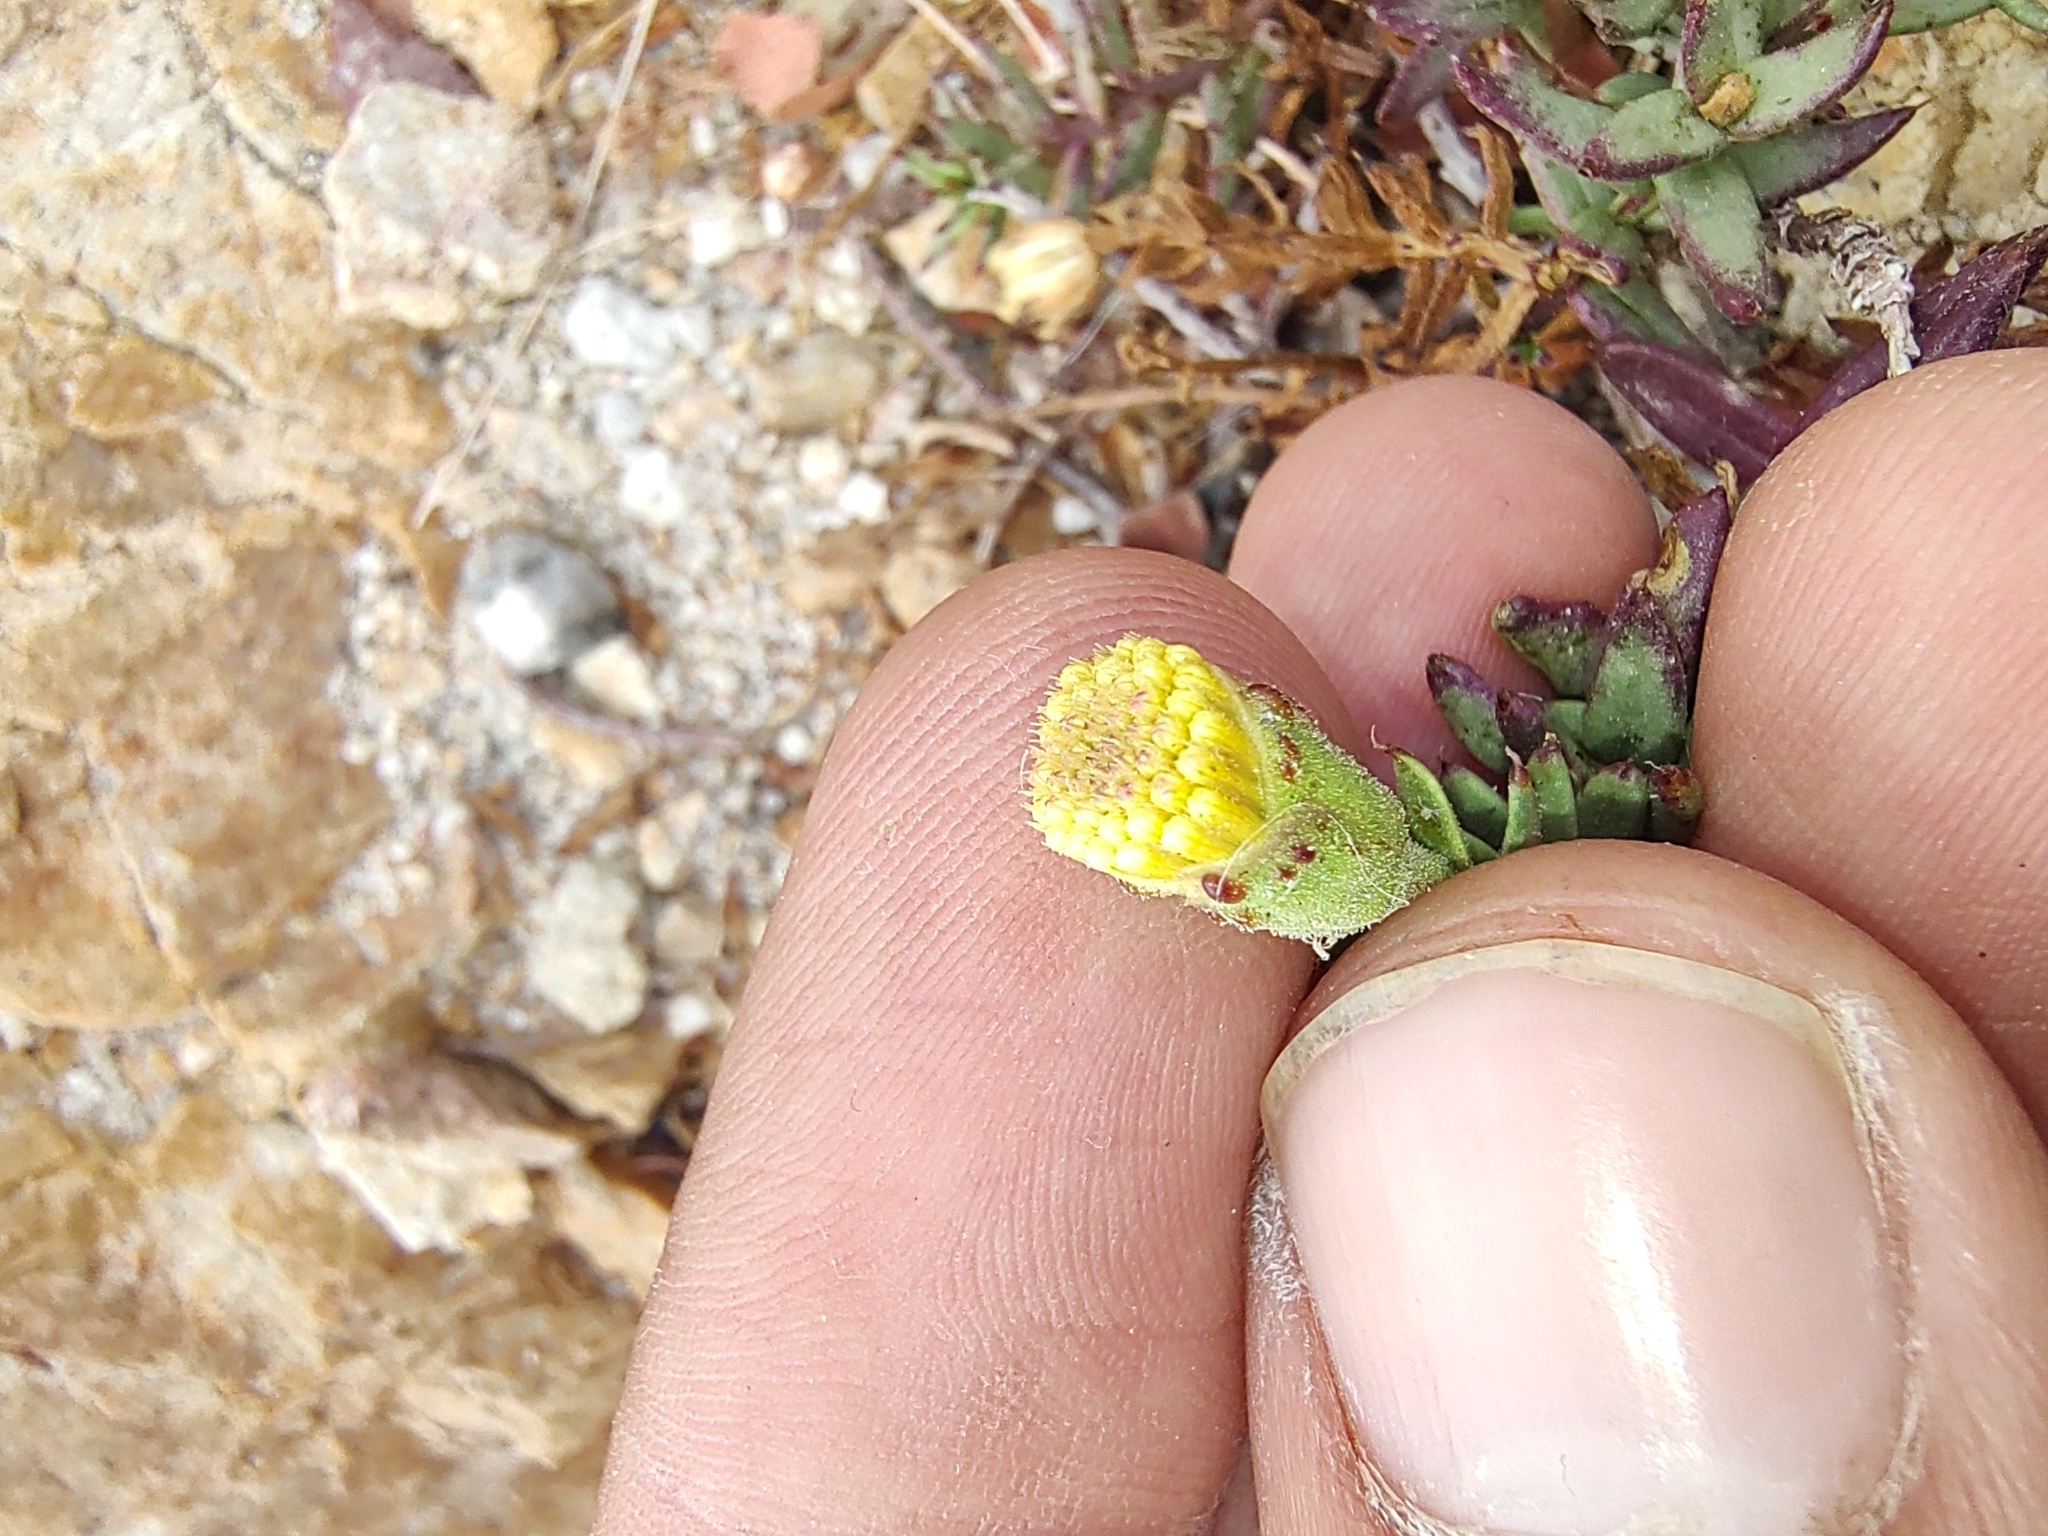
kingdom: Plantae
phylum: Tracheophyta
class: Magnoliopsida
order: Asterales
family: Asteraceae
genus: Bajacalia
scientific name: Bajacalia crassifolia
